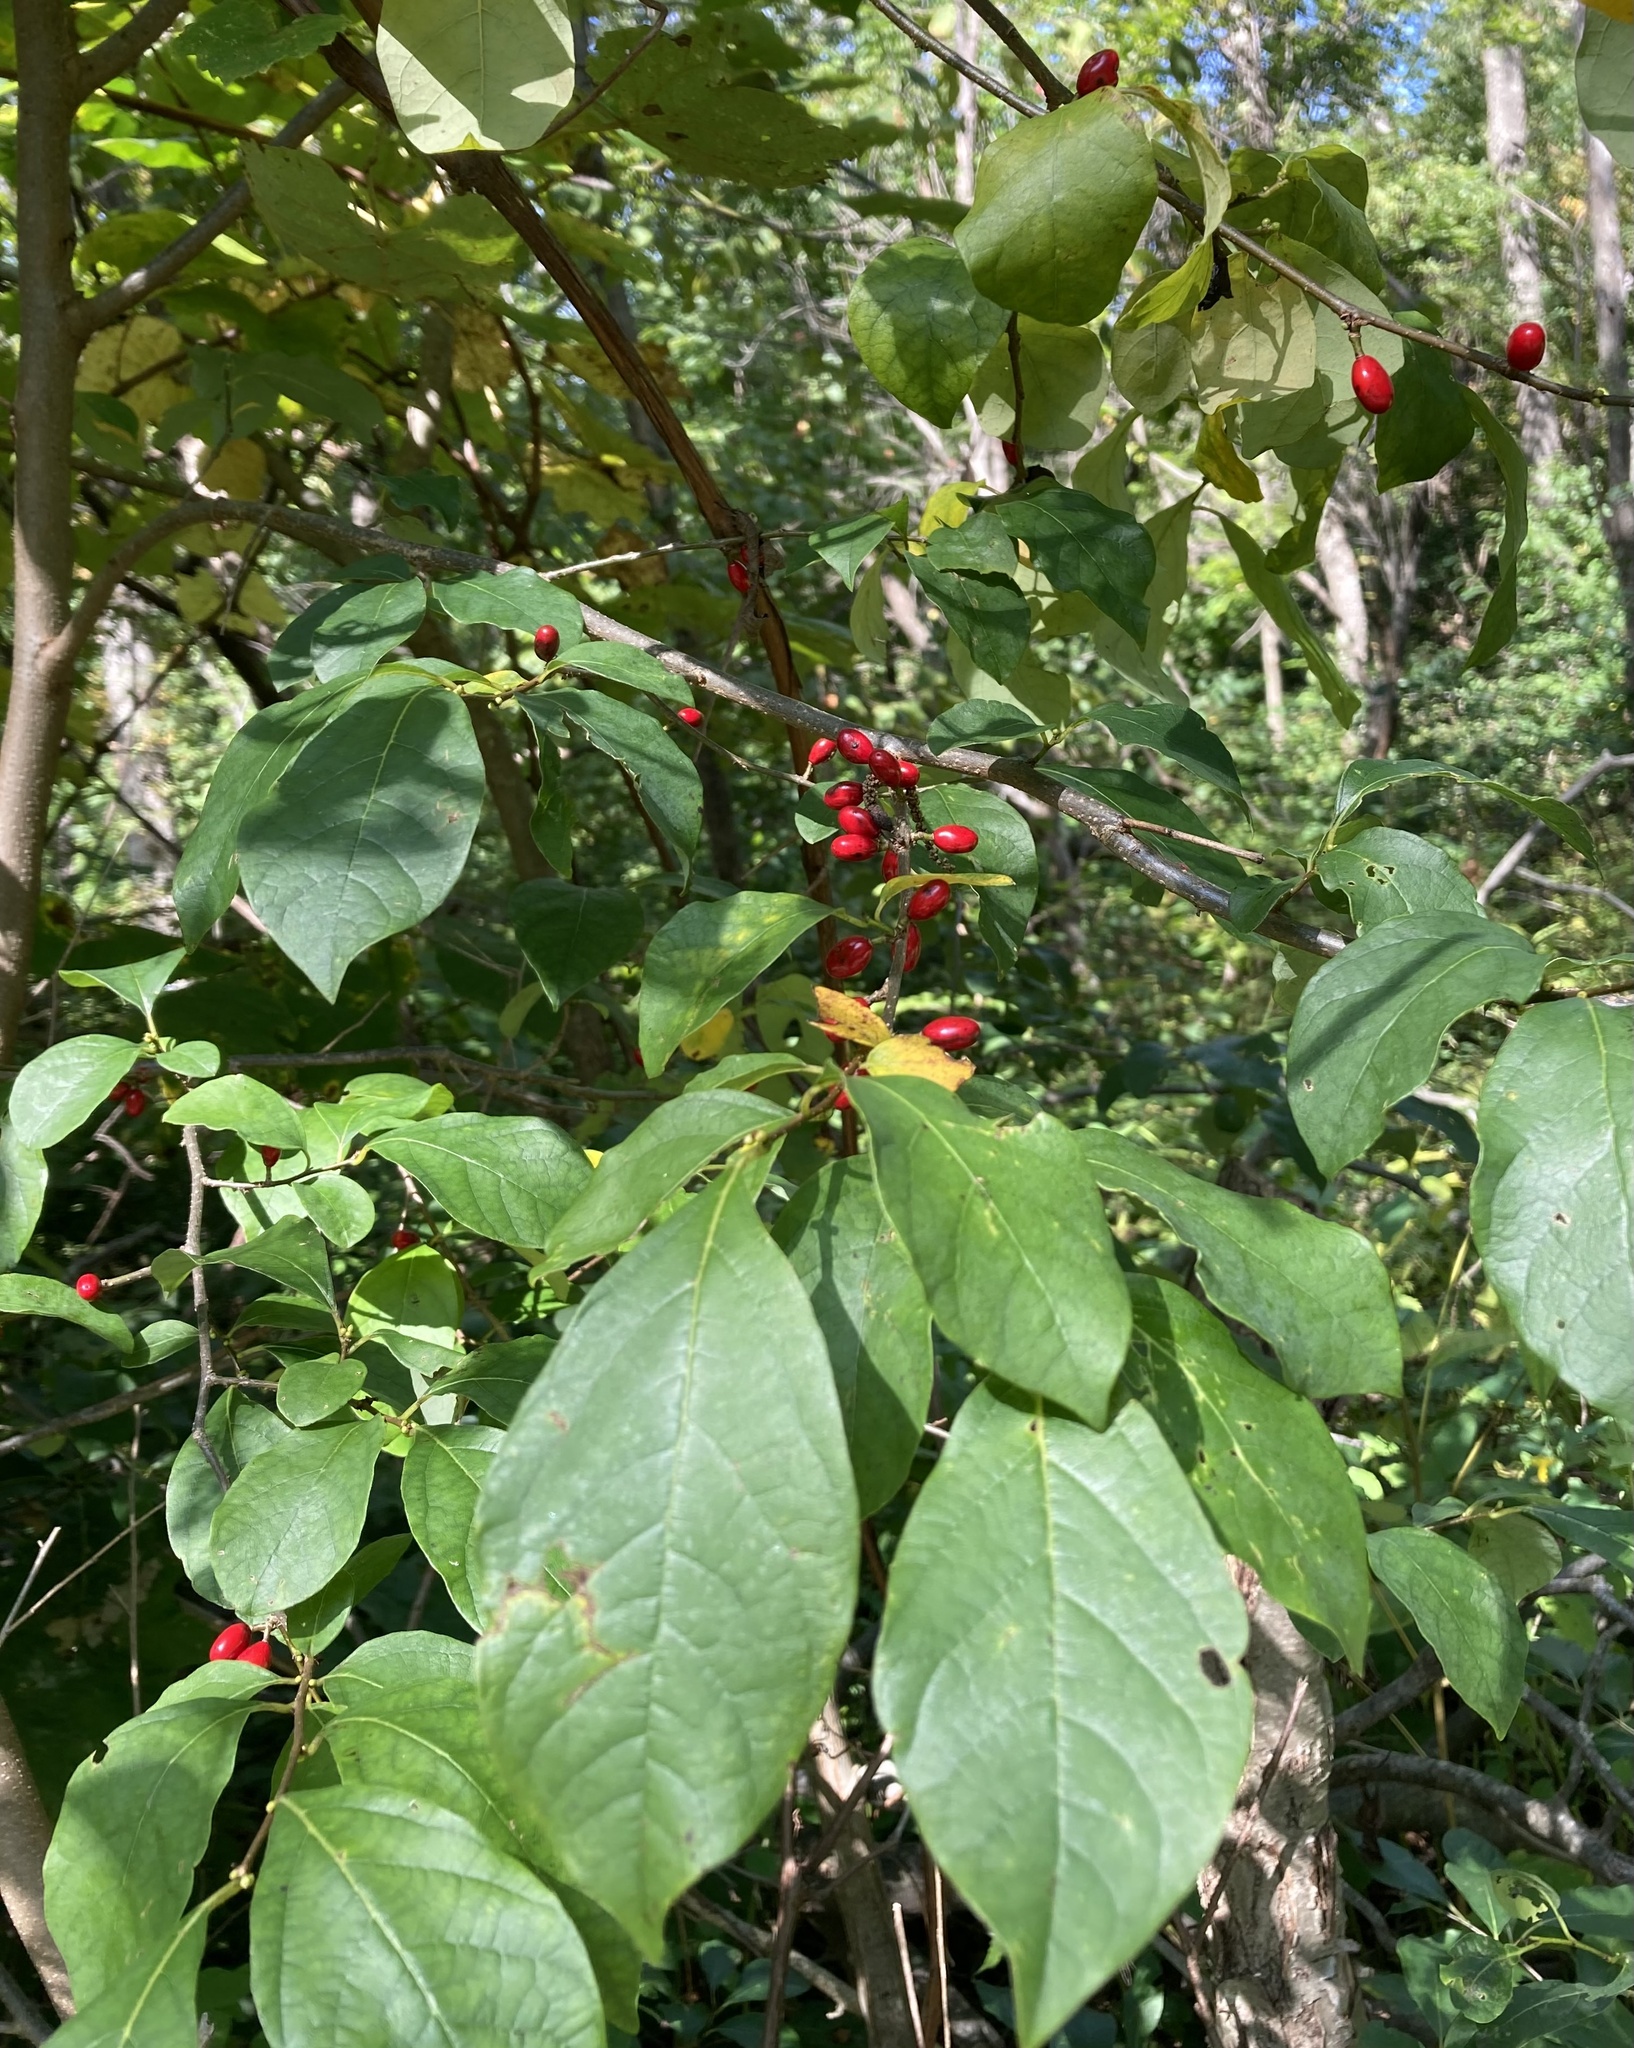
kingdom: Plantae
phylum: Tracheophyta
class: Magnoliopsida
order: Laurales
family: Lauraceae
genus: Lindera
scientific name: Lindera benzoin
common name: Spicebush
